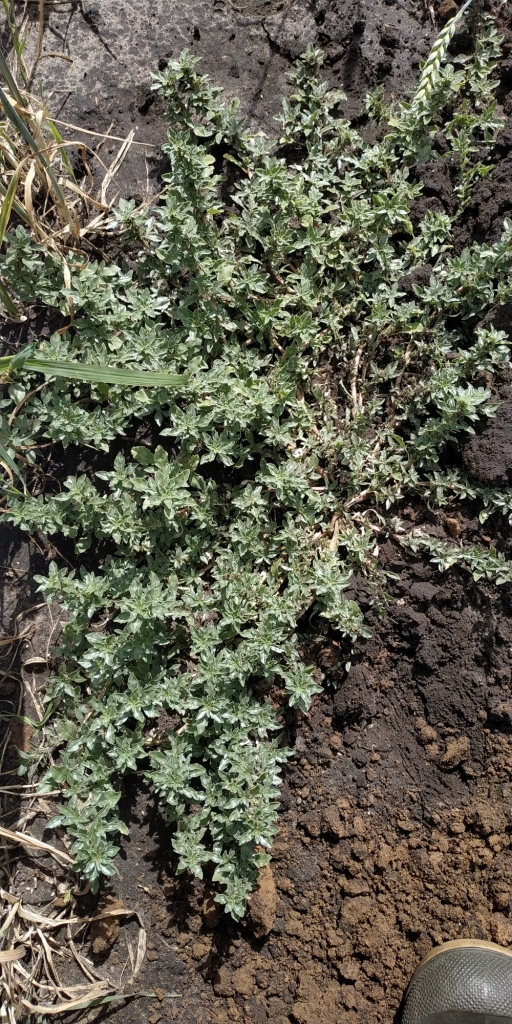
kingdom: Plantae
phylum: Tracheophyta
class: Magnoliopsida
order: Caryophyllales
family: Amaranthaceae
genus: Amaranthus
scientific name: Amaranthus blitoides
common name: Prostrate pigweed
